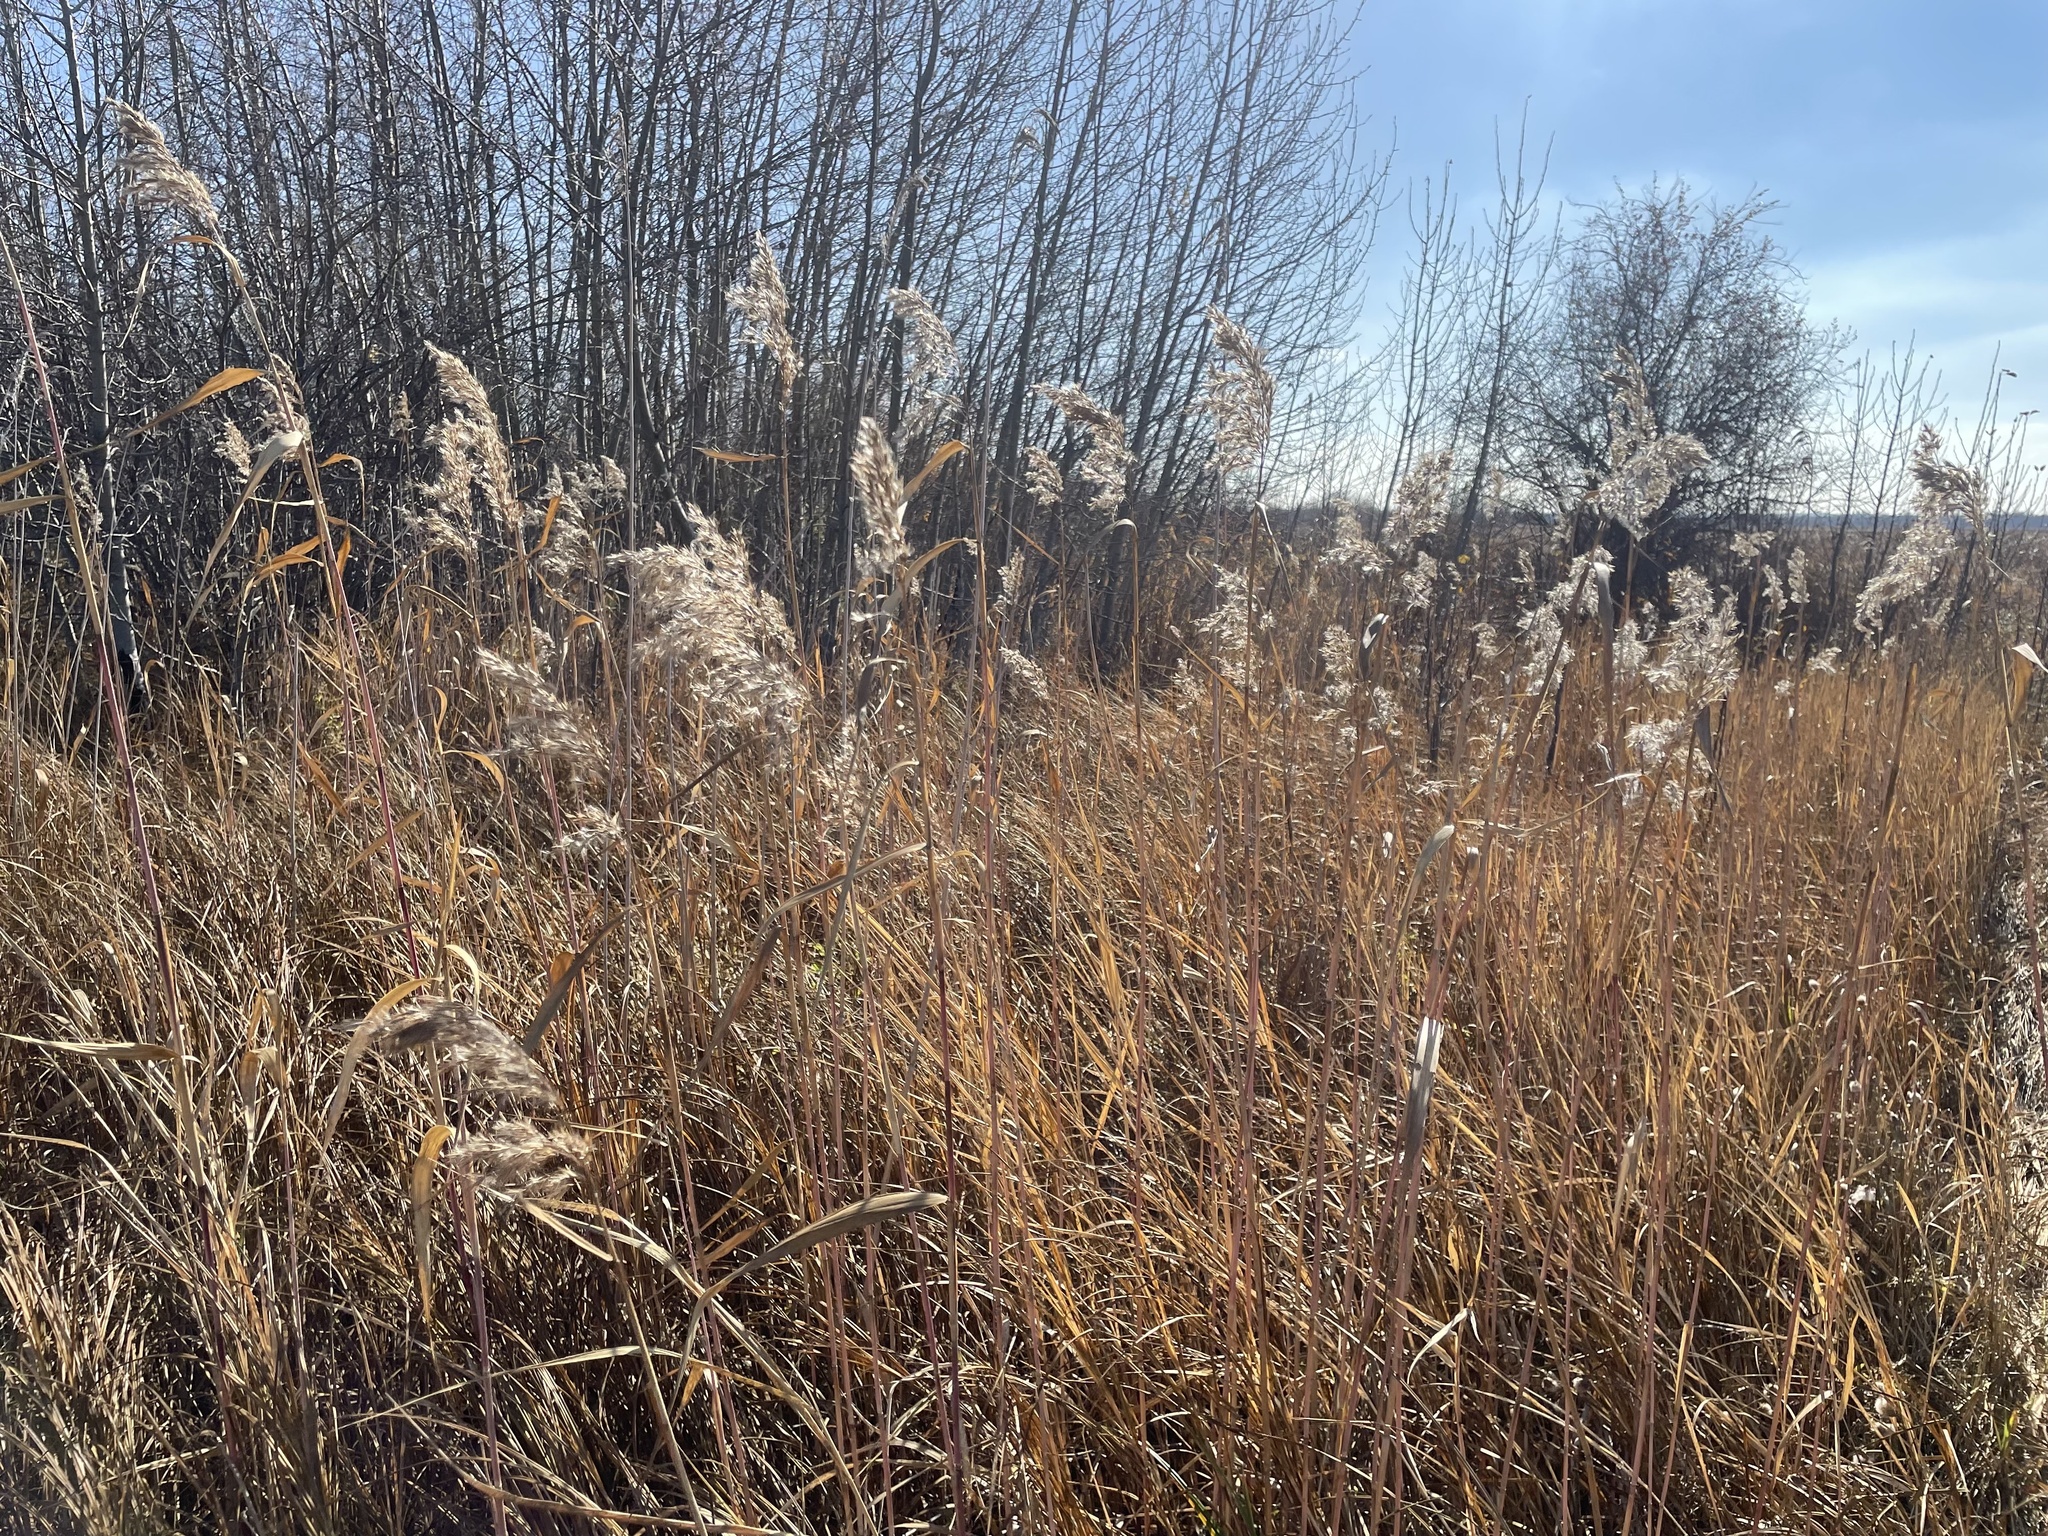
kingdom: Plantae
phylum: Tracheophyta
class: Liliopsida
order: Poales
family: Poaceae
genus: Phragmites
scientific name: Phragmites australis
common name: Common reed
